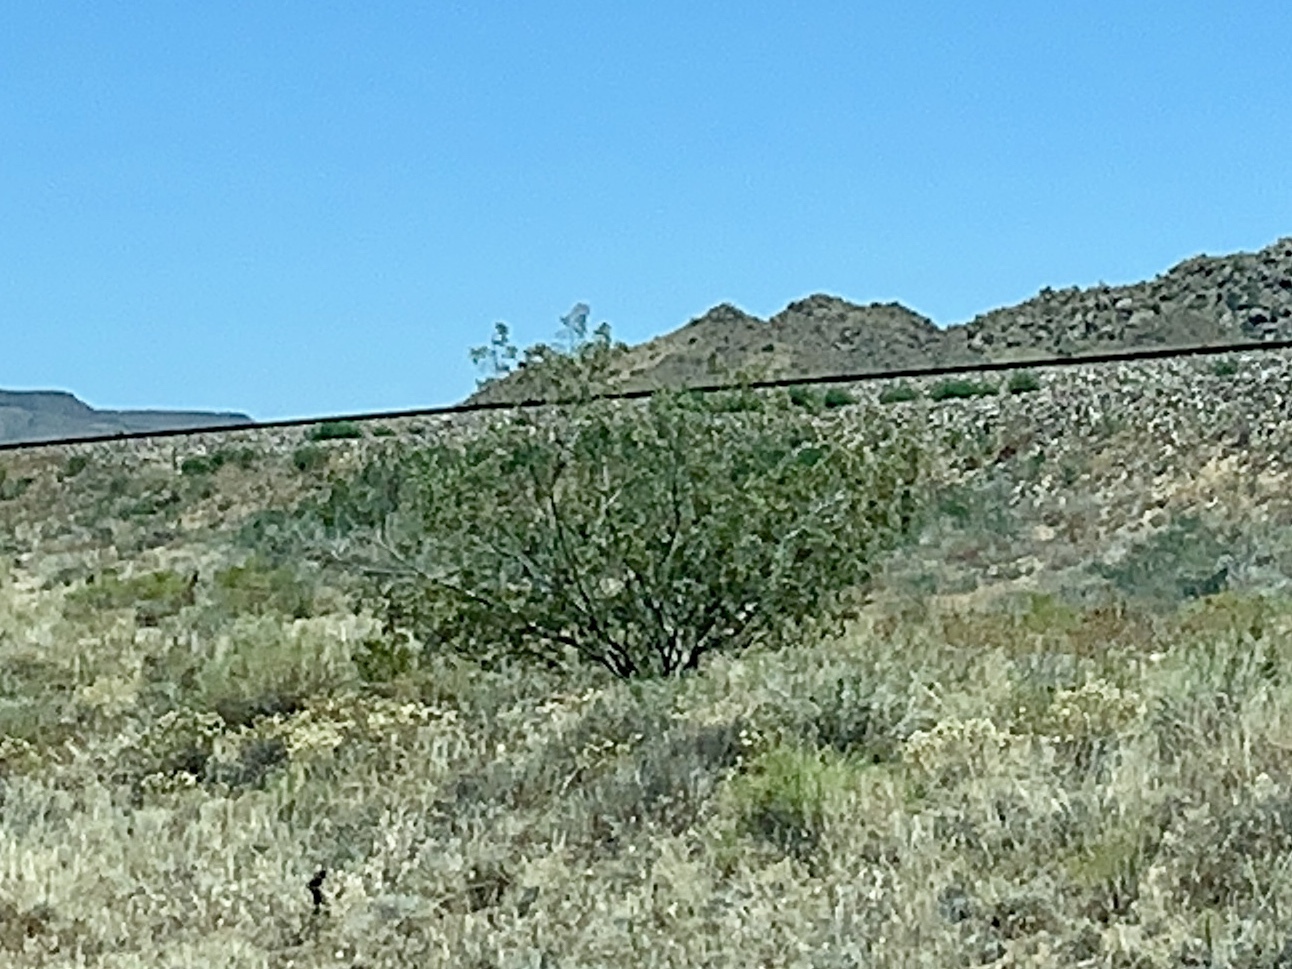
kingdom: Plantae
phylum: Tracheophyta
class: Magnoliopsida
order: Zygophyllales
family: Zygophyllaceae
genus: Larrea
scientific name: Larrea tridentata
